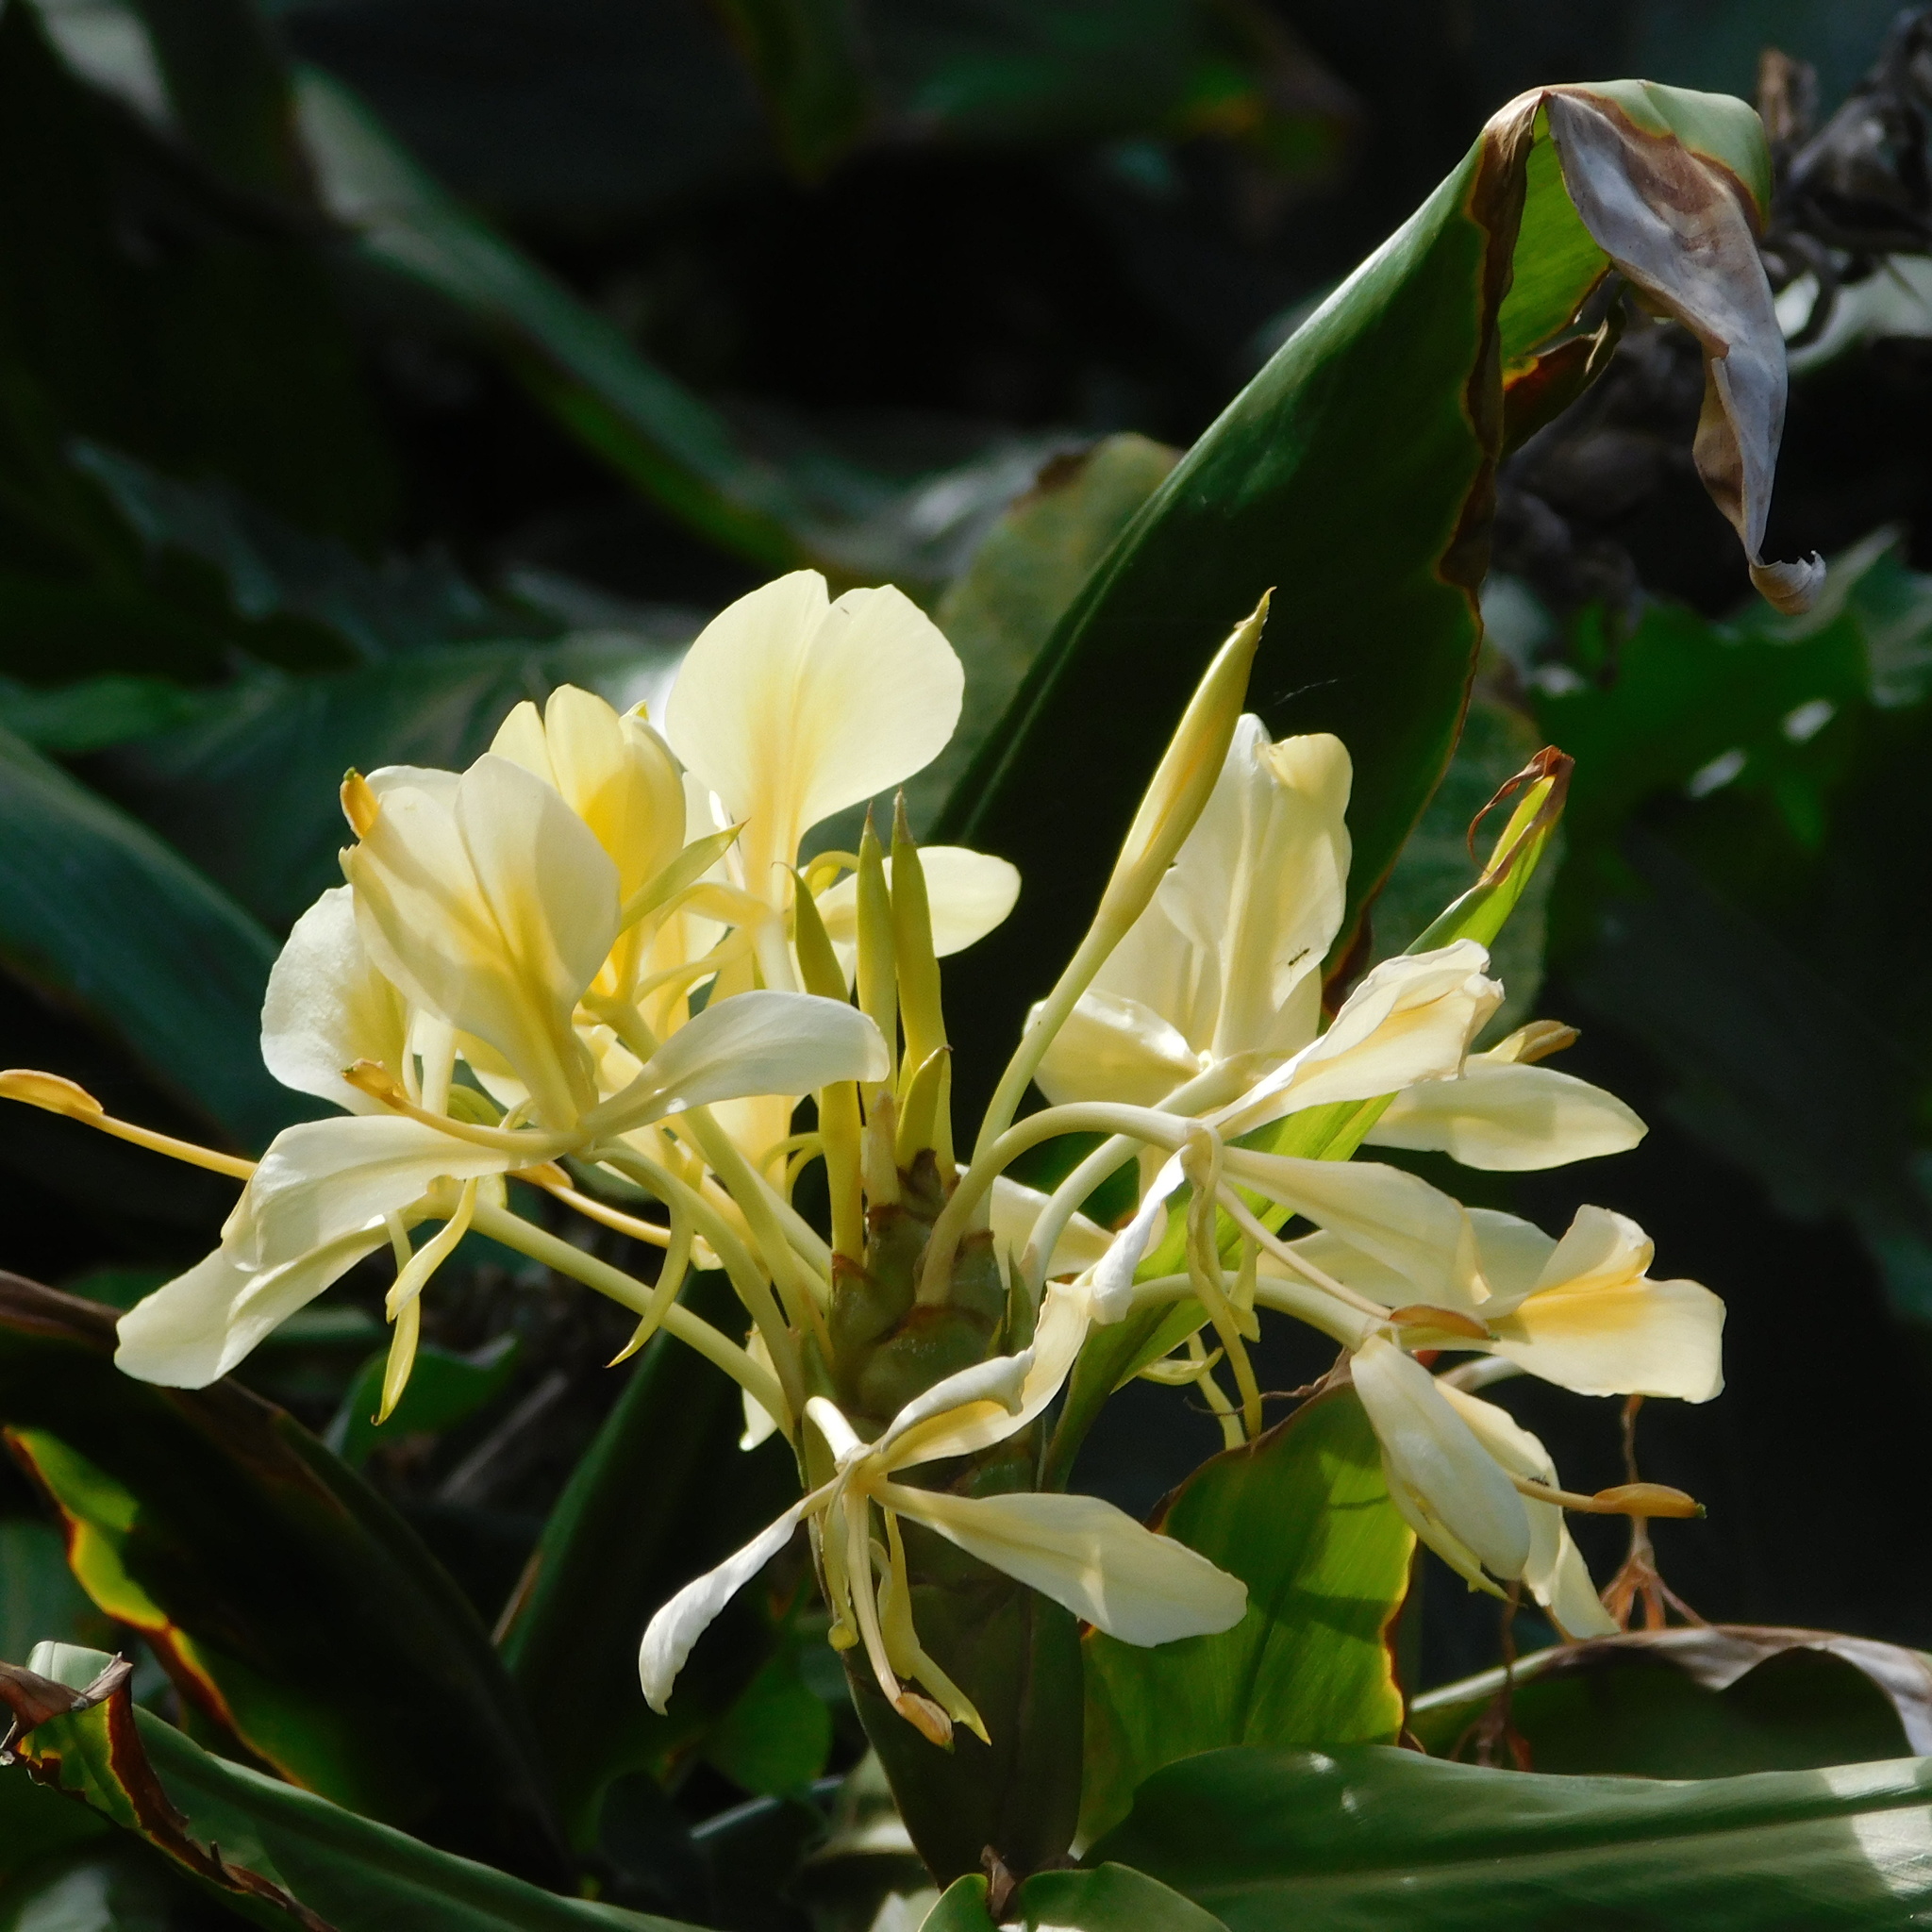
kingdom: Plantae
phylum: Tracheophyta
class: Liliopsida
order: Zingiberales
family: Zingiberaceae
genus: Hedychium
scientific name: Hedychium flavescens
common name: Yellow ginger
